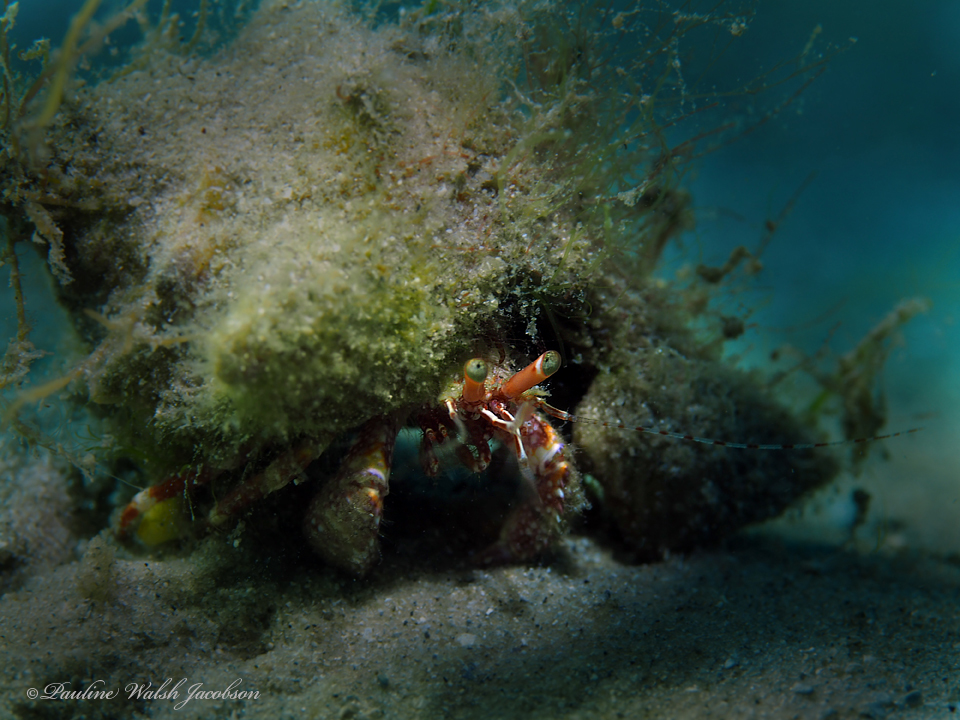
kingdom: Animalia
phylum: Arthropoda
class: Malacostraca
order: Decapoda
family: Diogenidae
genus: Petrochirus
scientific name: Petrochirus diogenes
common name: Giant hermit crab
